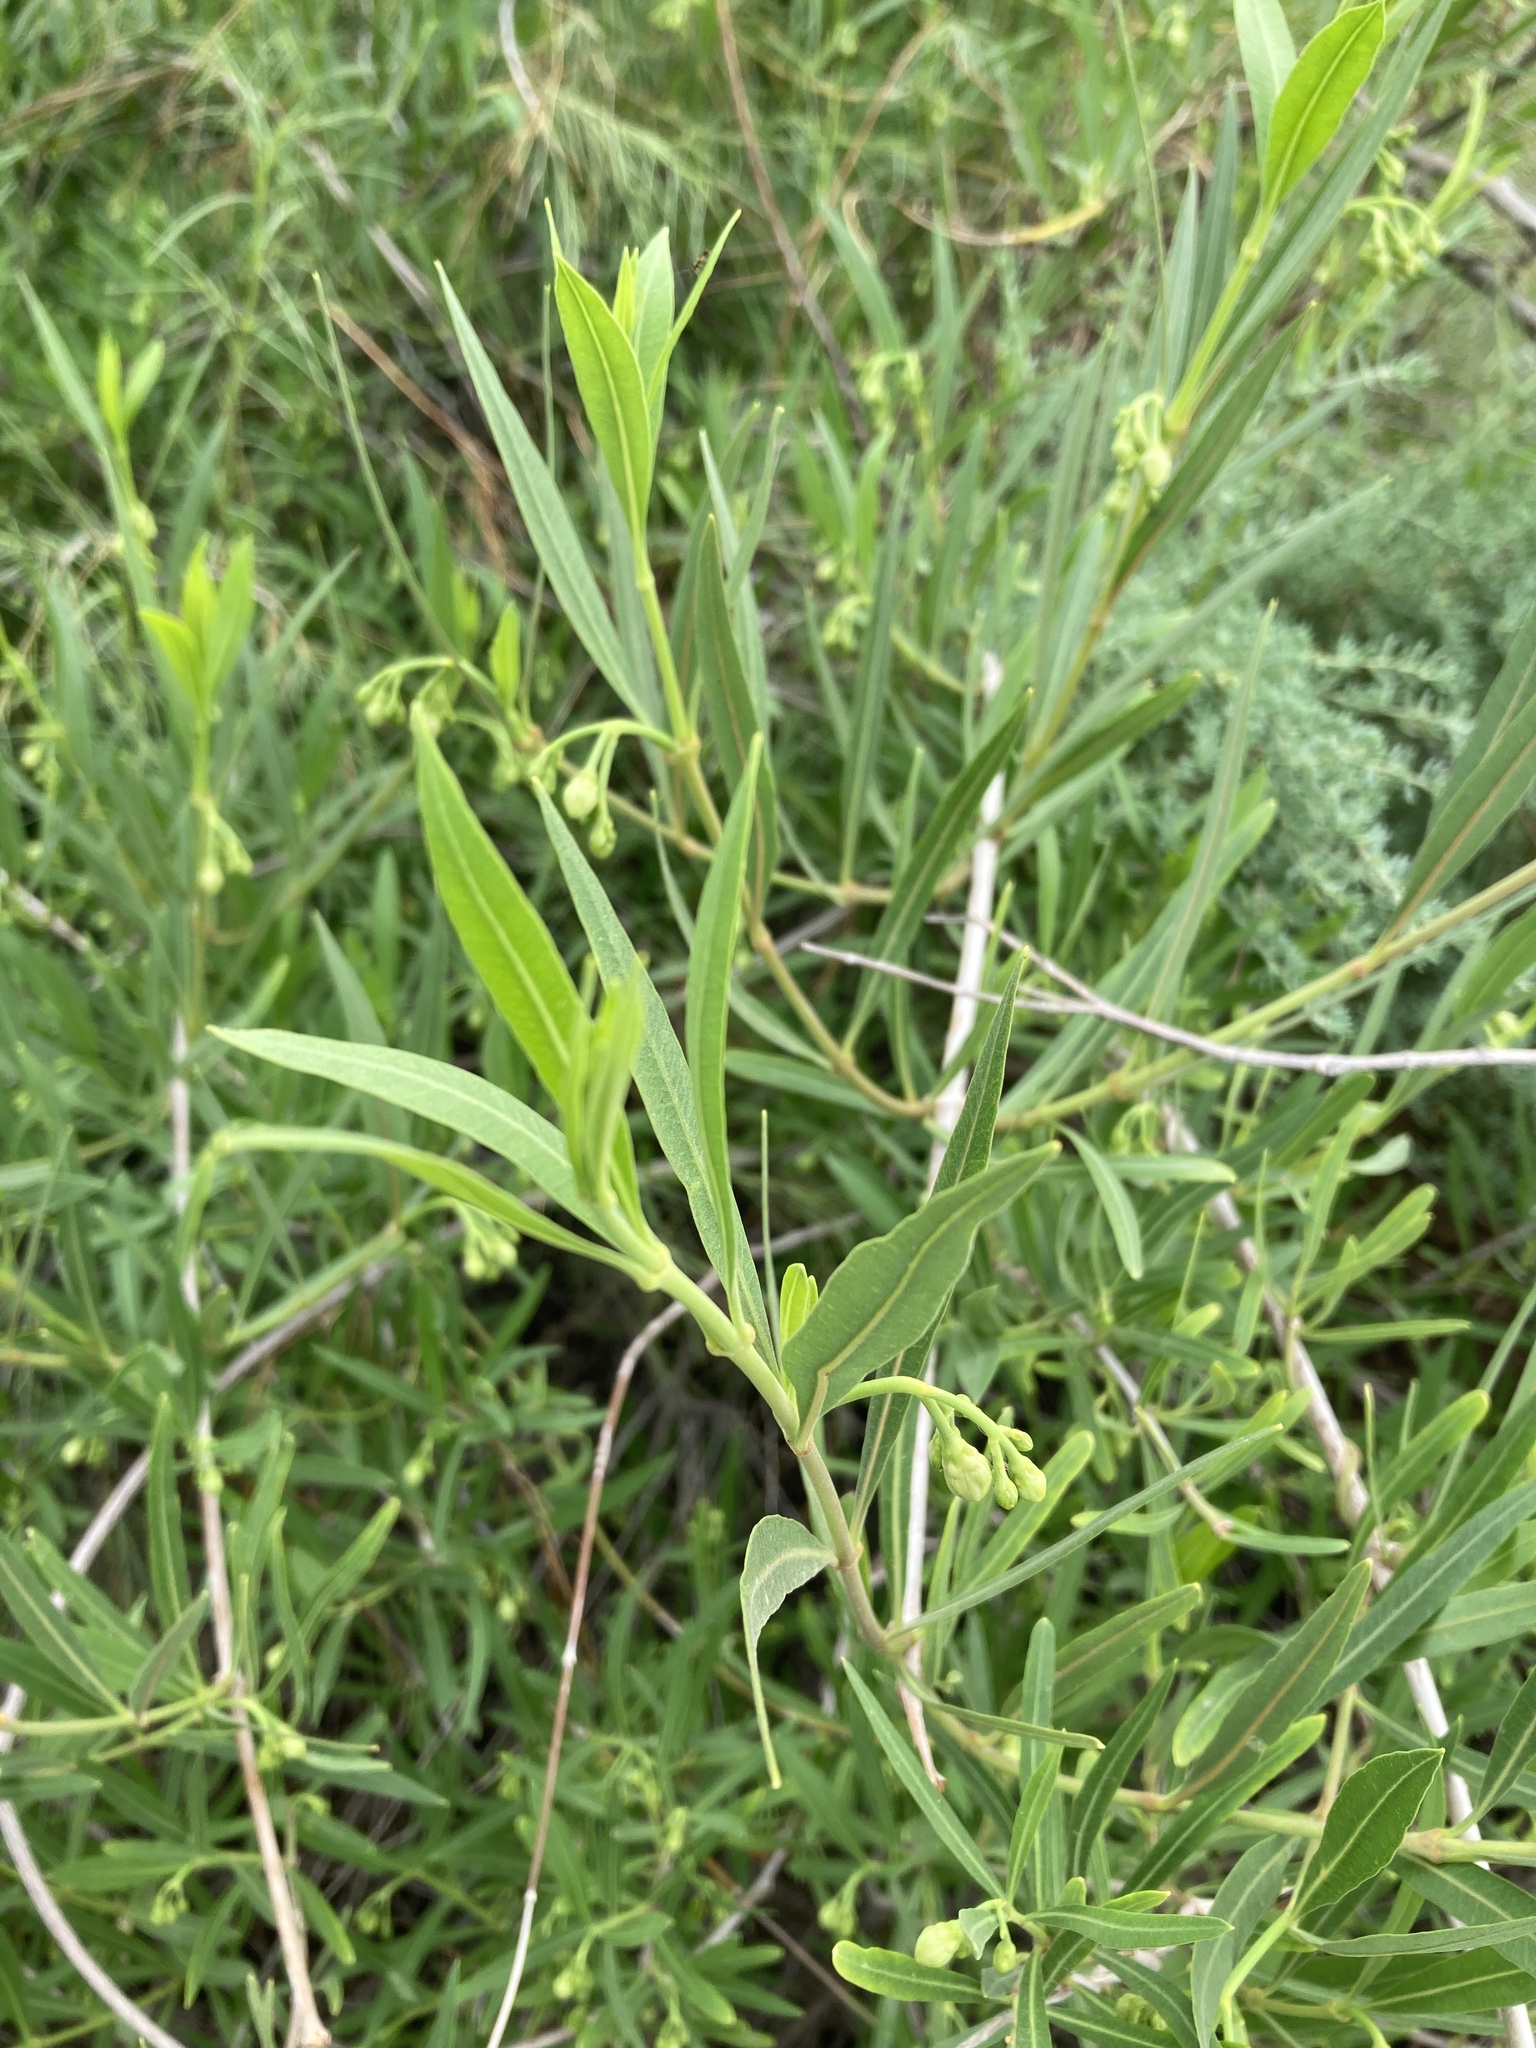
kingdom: Plantae
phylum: Tracheophyta
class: Magnoliopsida
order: Gentianales
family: Apocynaceae
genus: Periploca
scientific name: Periploca laevigata
